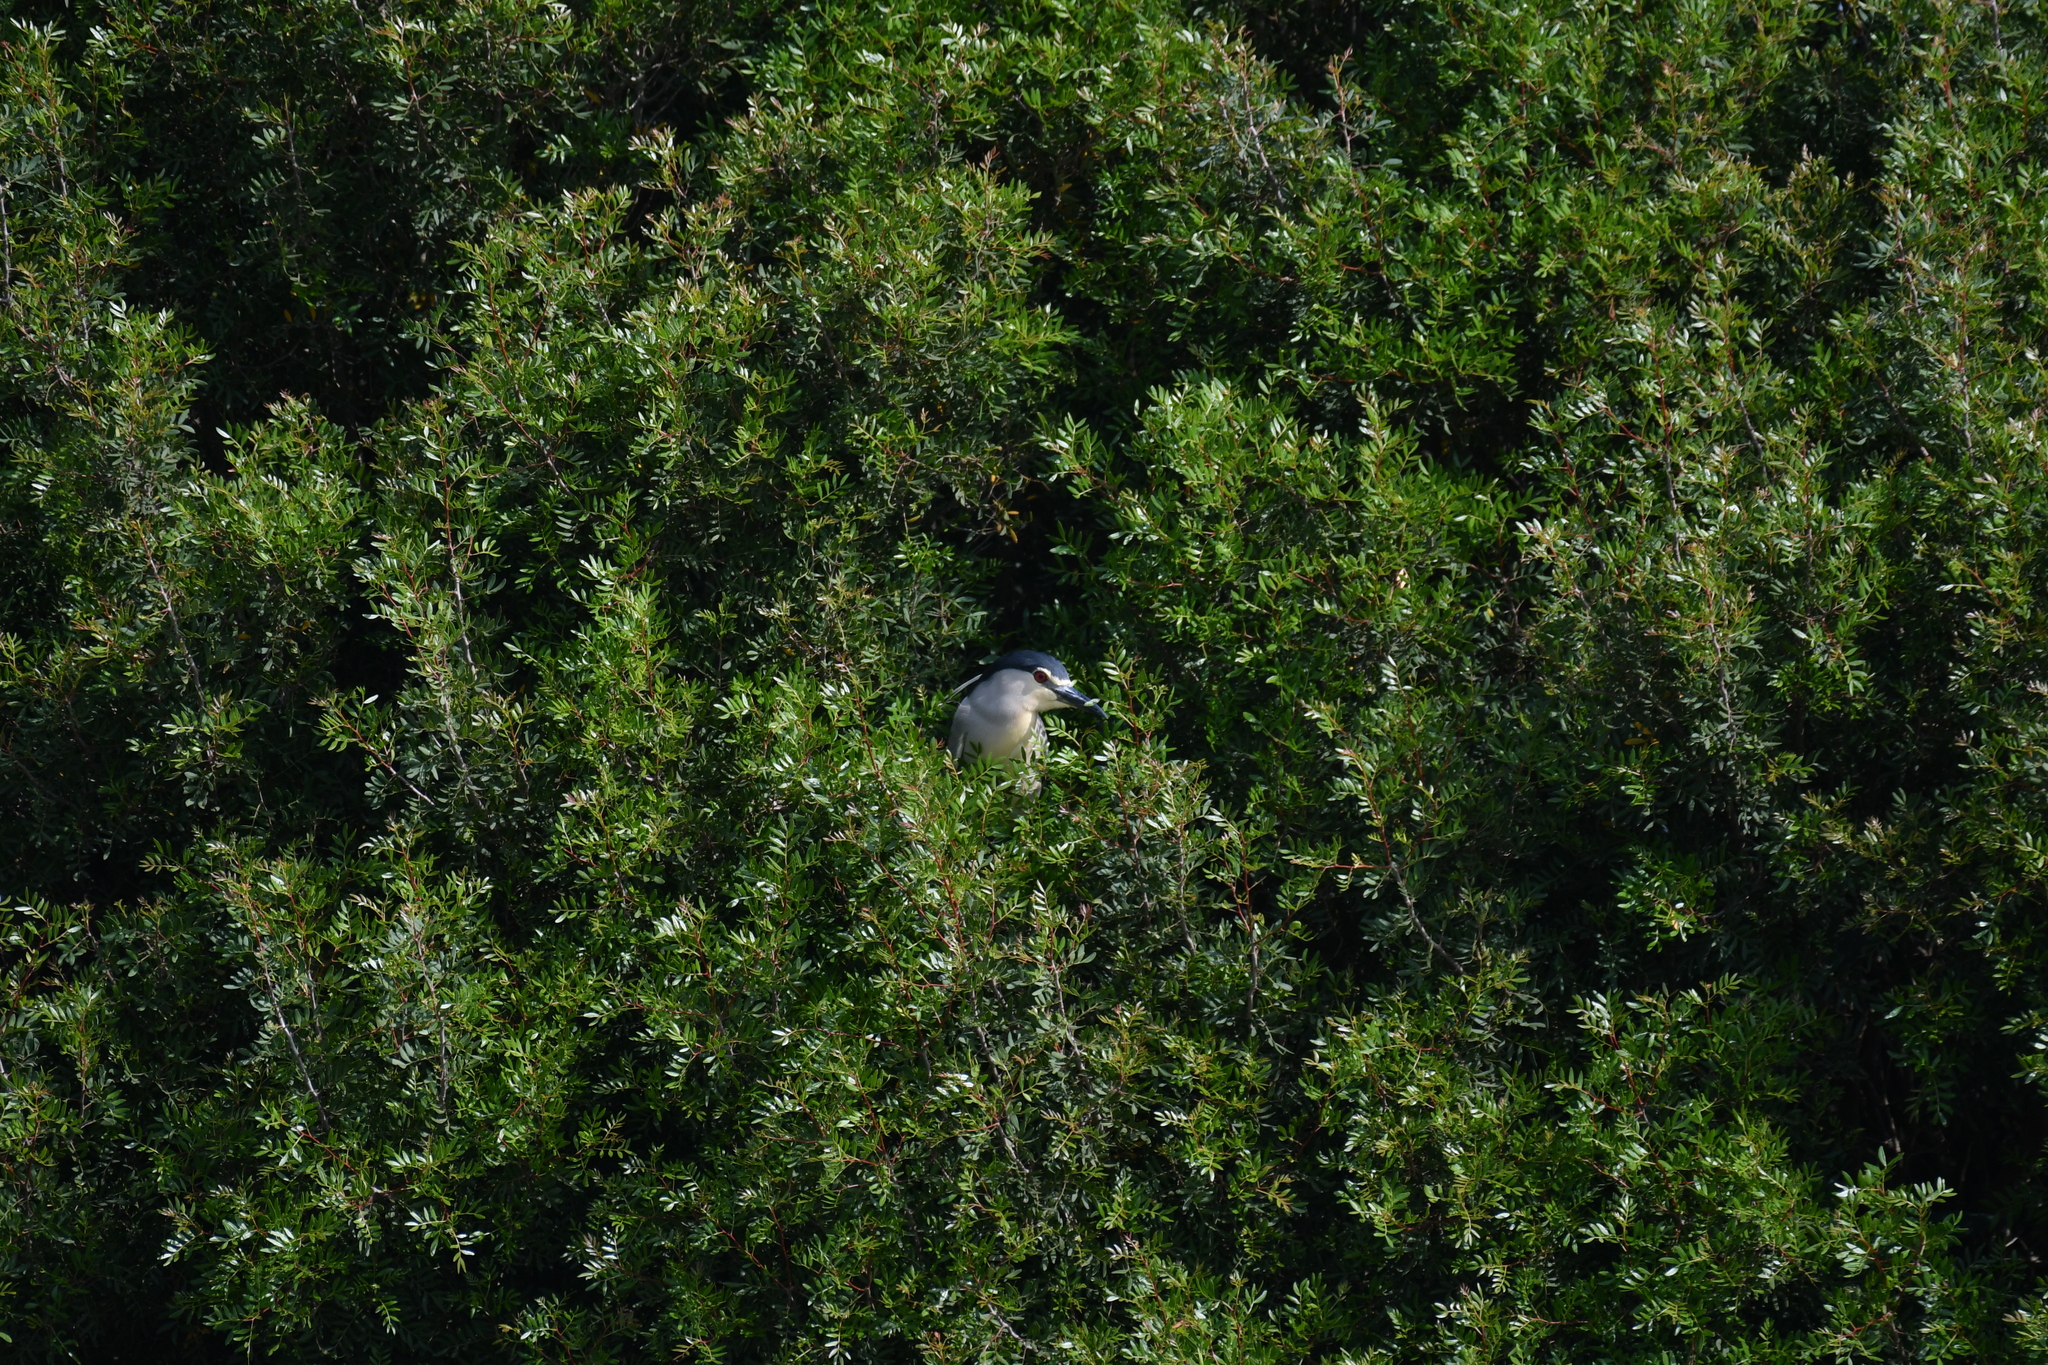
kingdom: Animalia
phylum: Chordata
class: Aves
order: Pelecaniformes
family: Ardeidae
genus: Nycticorax
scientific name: Nycticorax nycticorax
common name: Black-crowned night heron
